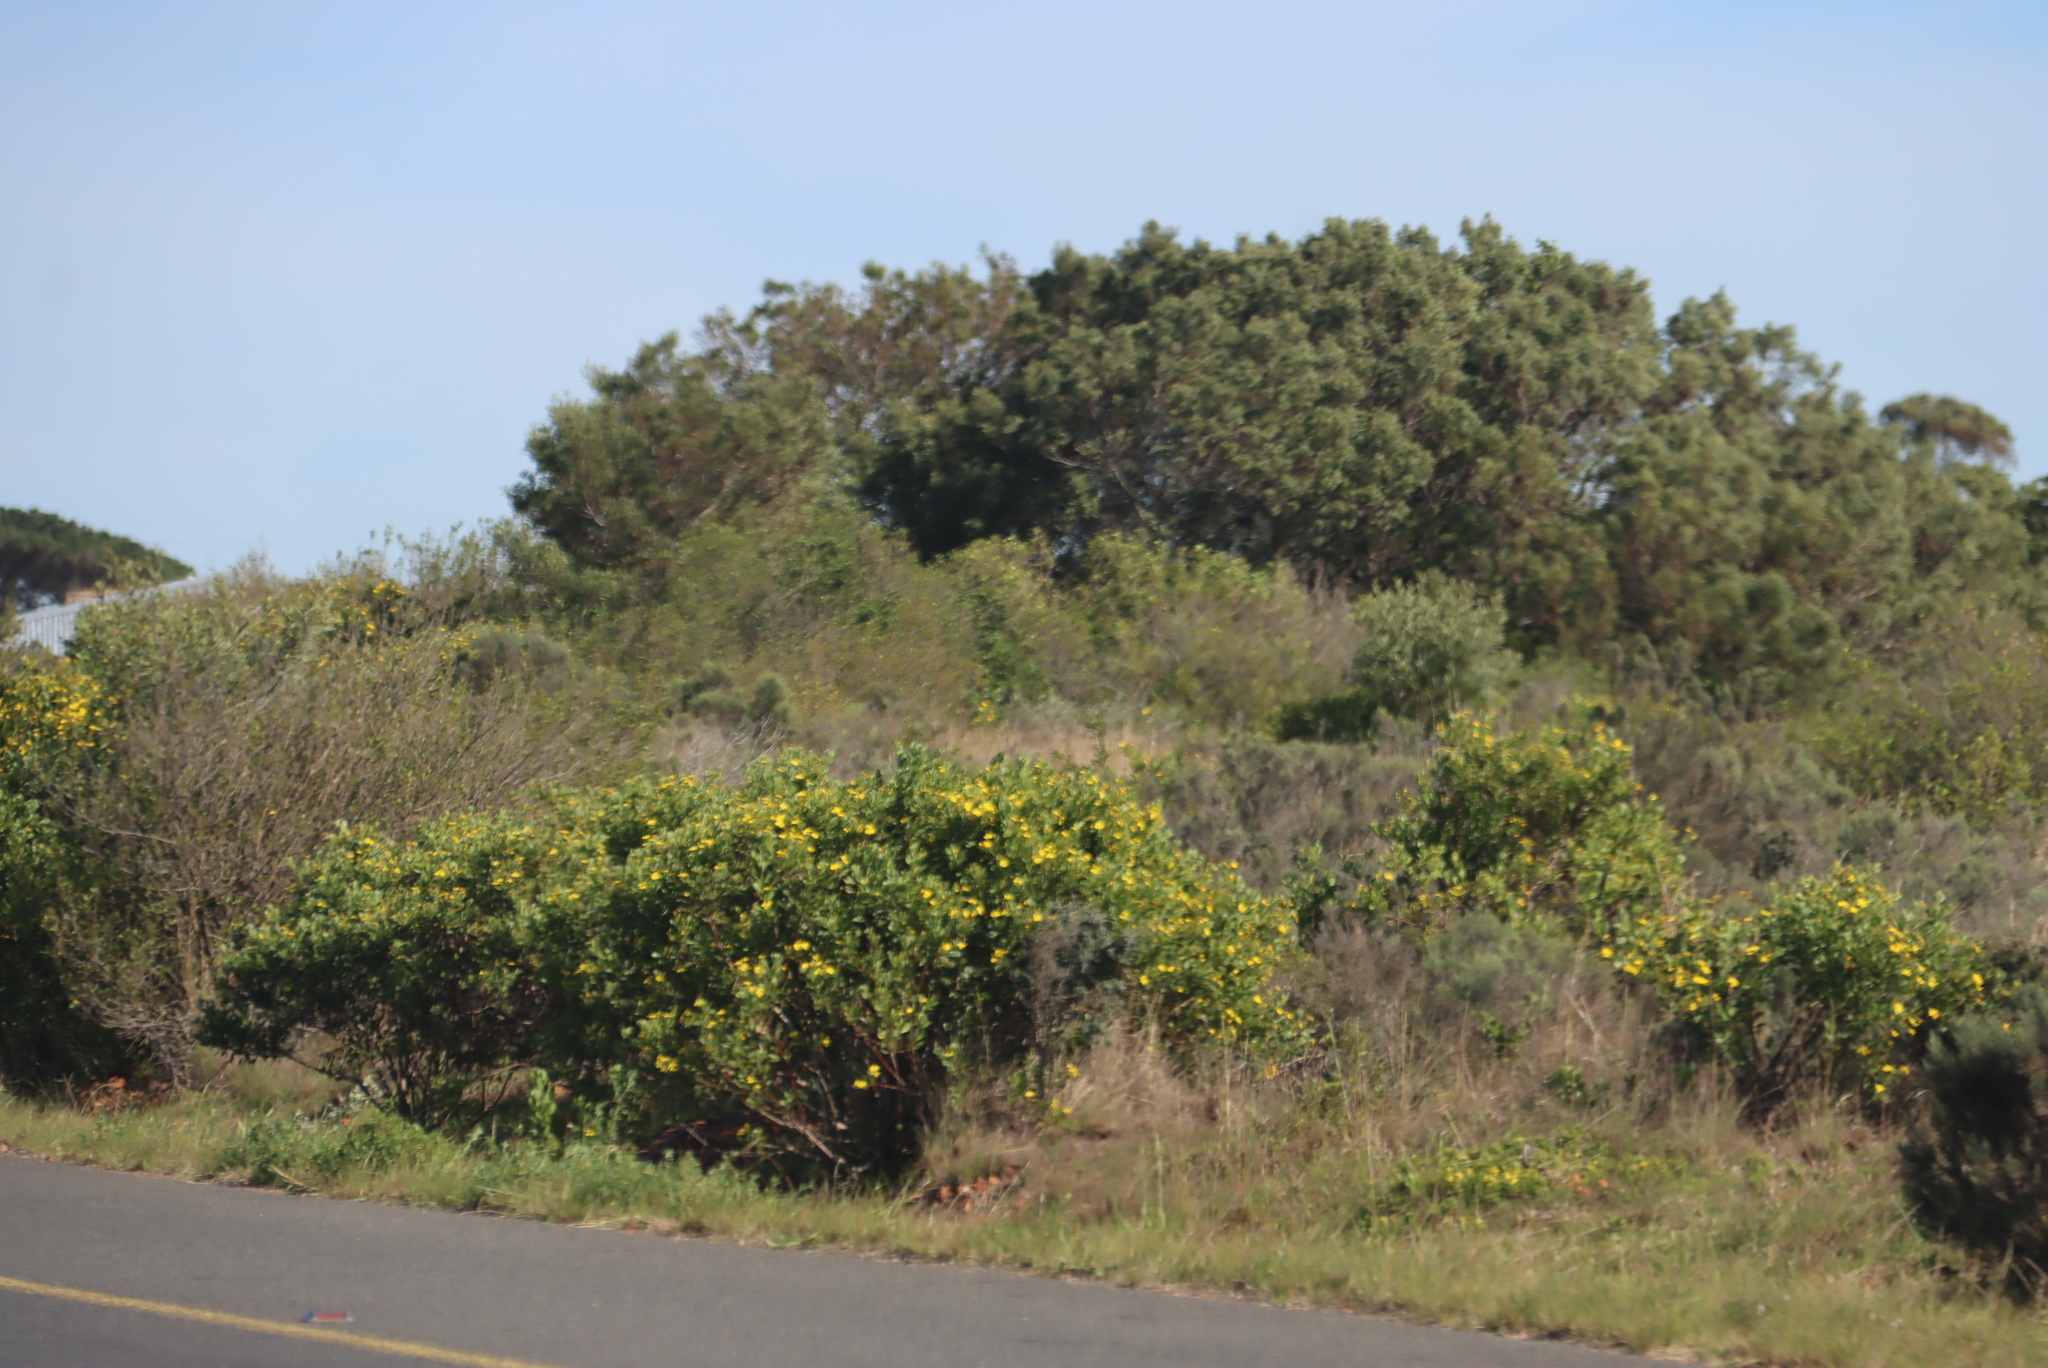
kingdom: Plantae
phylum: Tracheophyta
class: Magnoliopsida
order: Asterales
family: Asteraceae
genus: Osteospermum
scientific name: Osteospermum moniliferum
